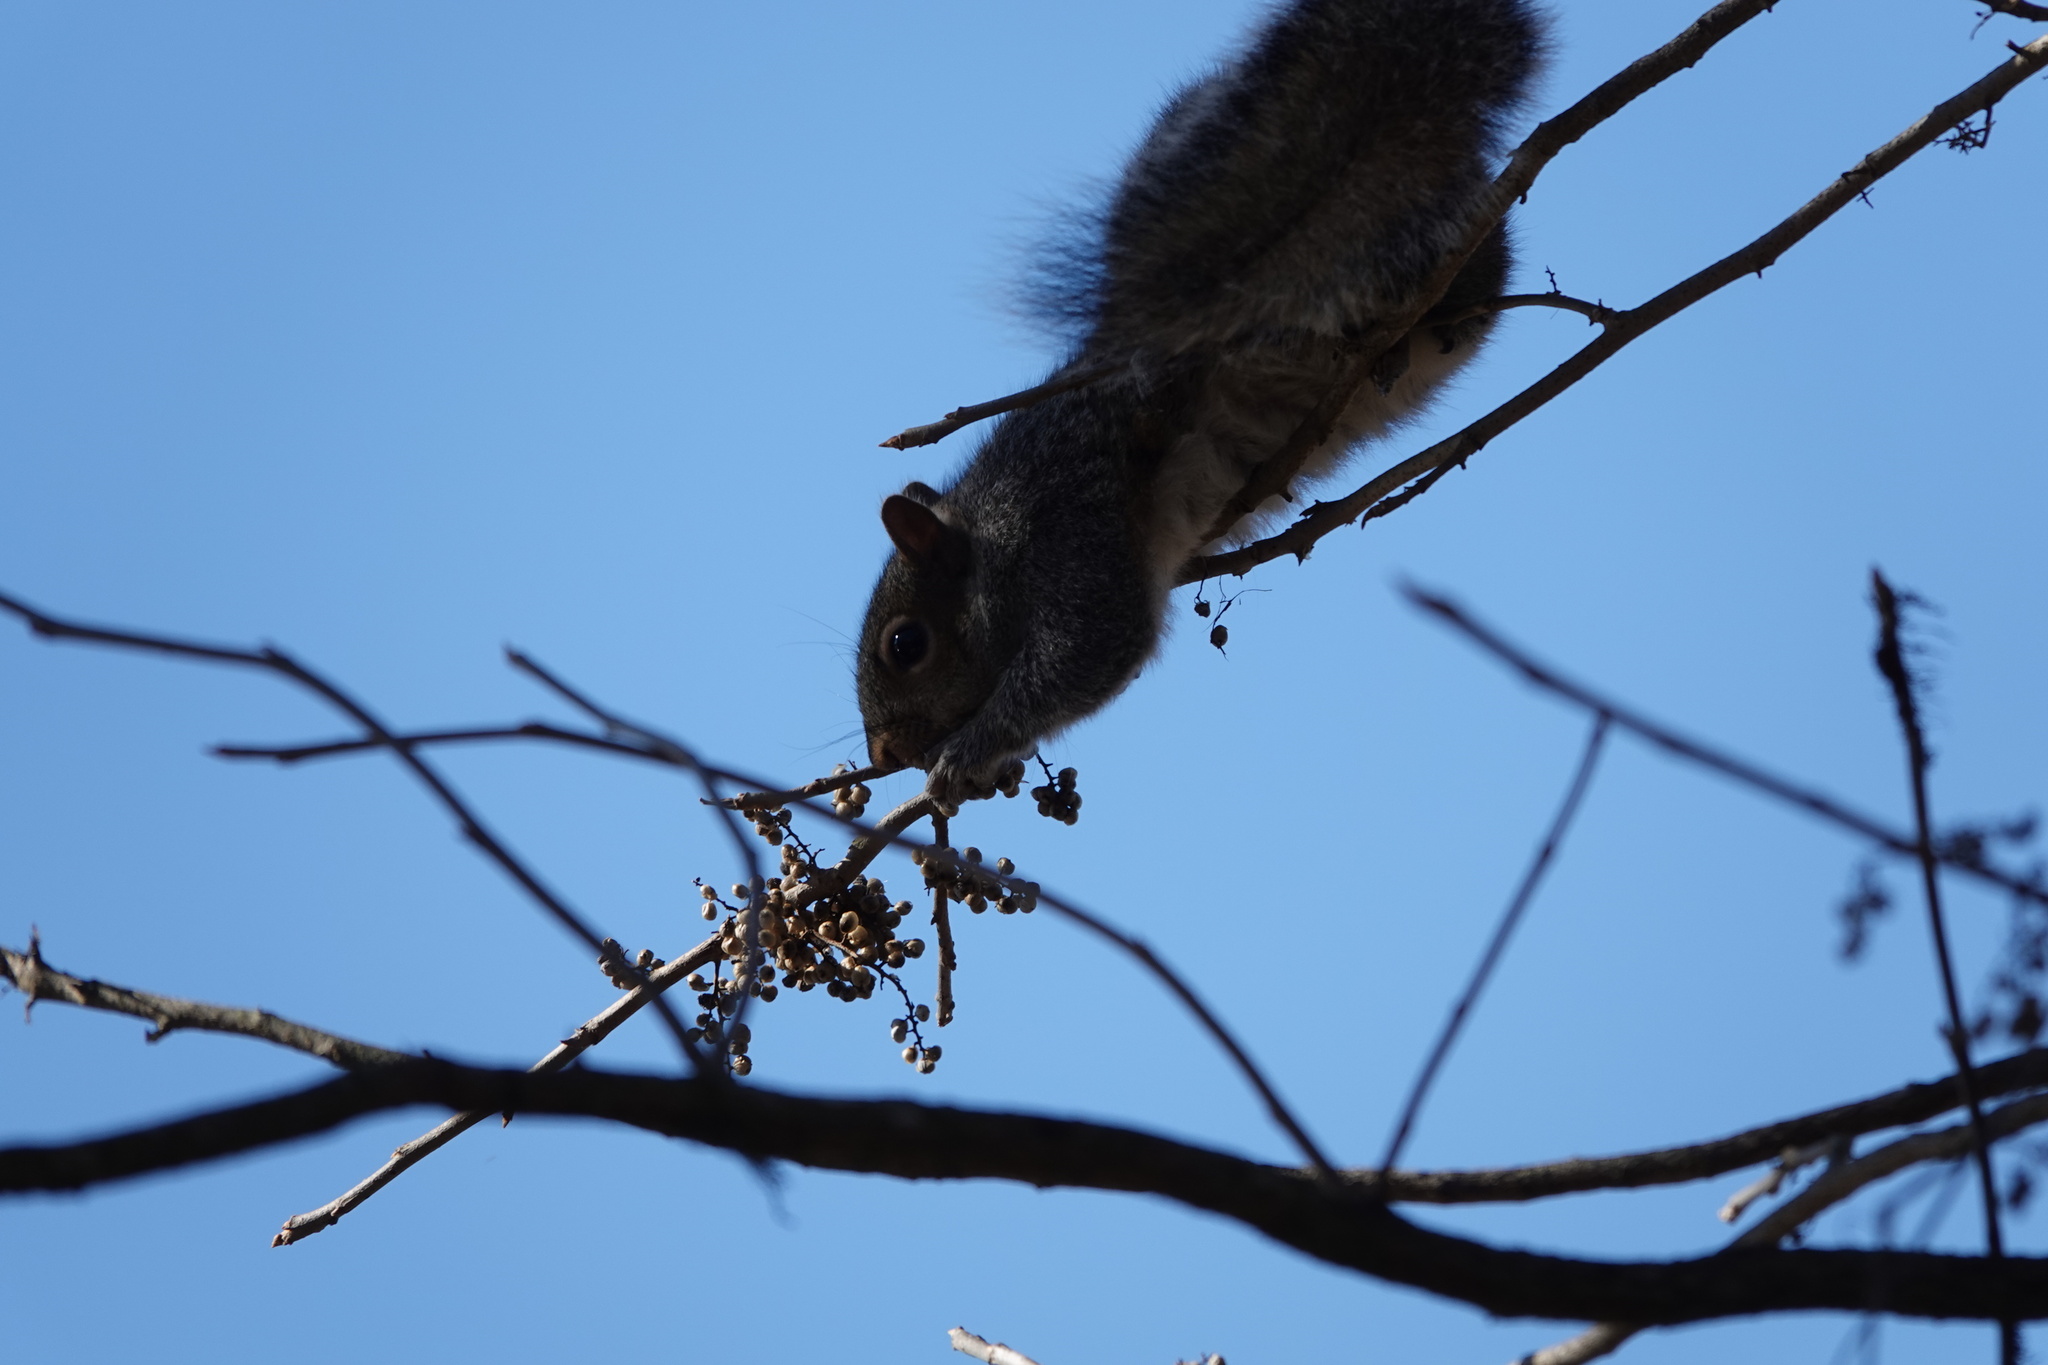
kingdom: Animalia
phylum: Chordata
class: Mammalia
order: Rodentia
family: Sciuridae
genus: Sciurus
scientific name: Sciurus carolinensis
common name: Eastern gray squirrel
